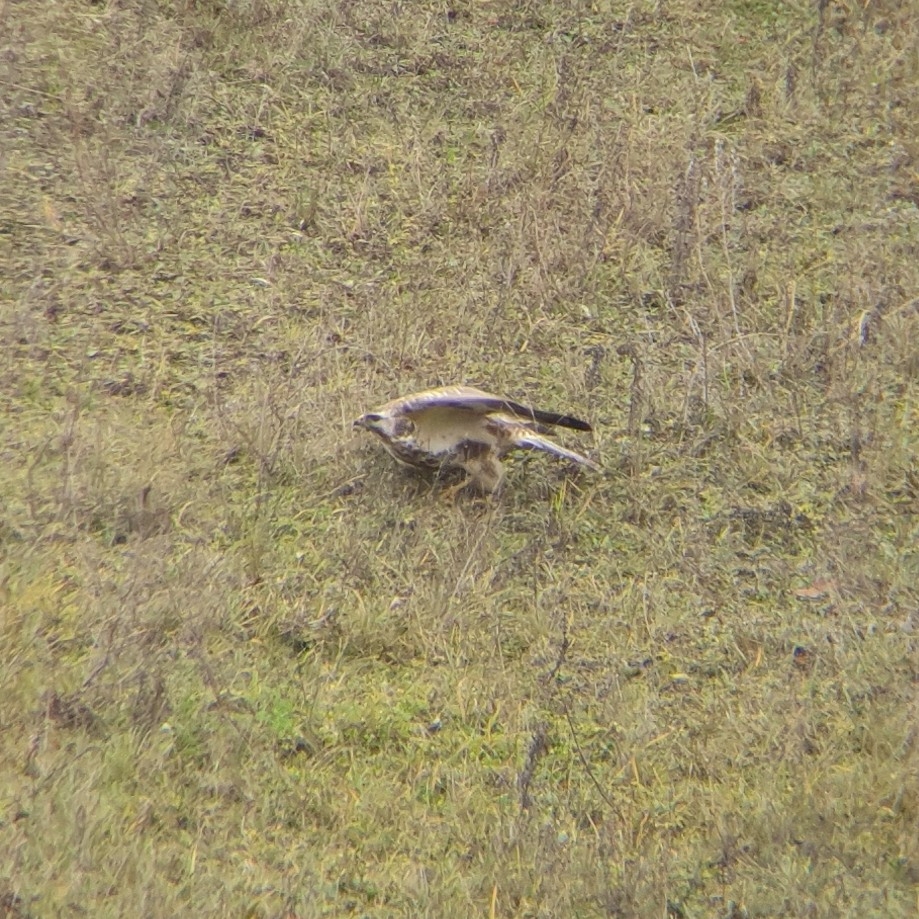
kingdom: Animalia
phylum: Chordata
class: Aves
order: Accipitriformes
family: Accipitridae
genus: Buteo
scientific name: Buteo buteo
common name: Common buzzard
